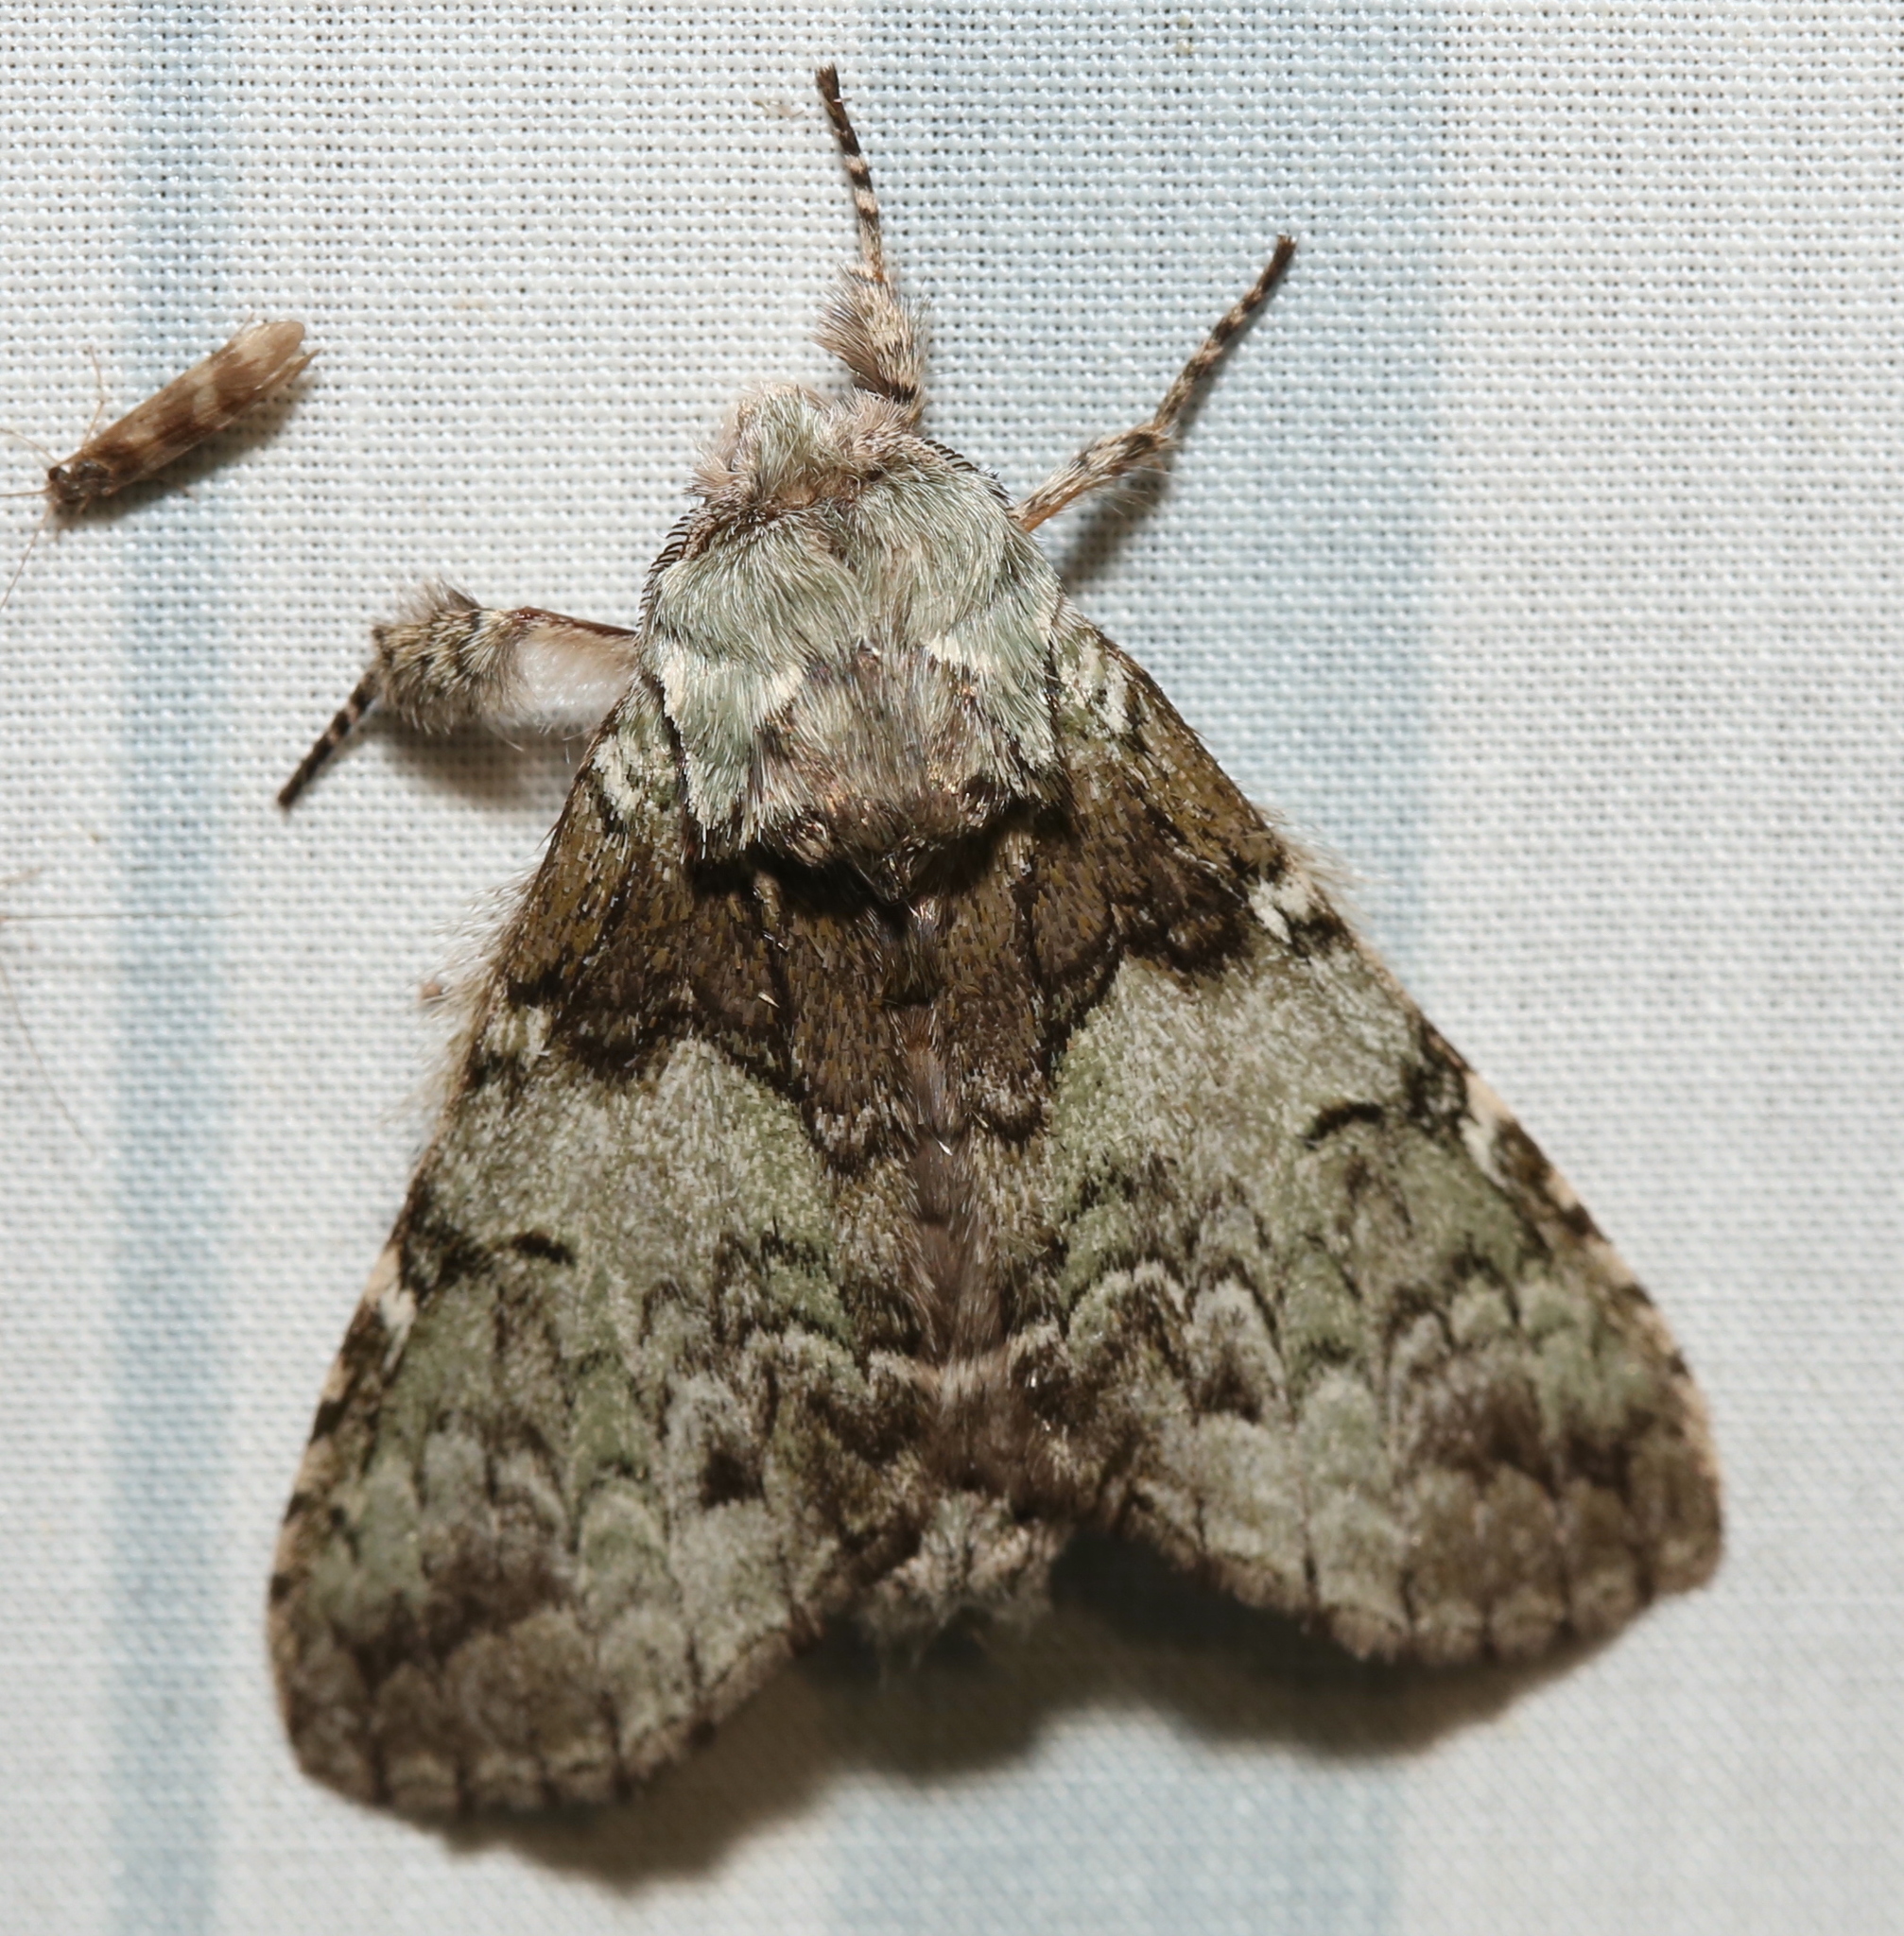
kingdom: Animalia
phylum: Arthropoda
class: Insecta
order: Lepidoptera
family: Notodontidae
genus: Macrurocampa
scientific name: Macrurocampa marthesia
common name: Mottled prominent
